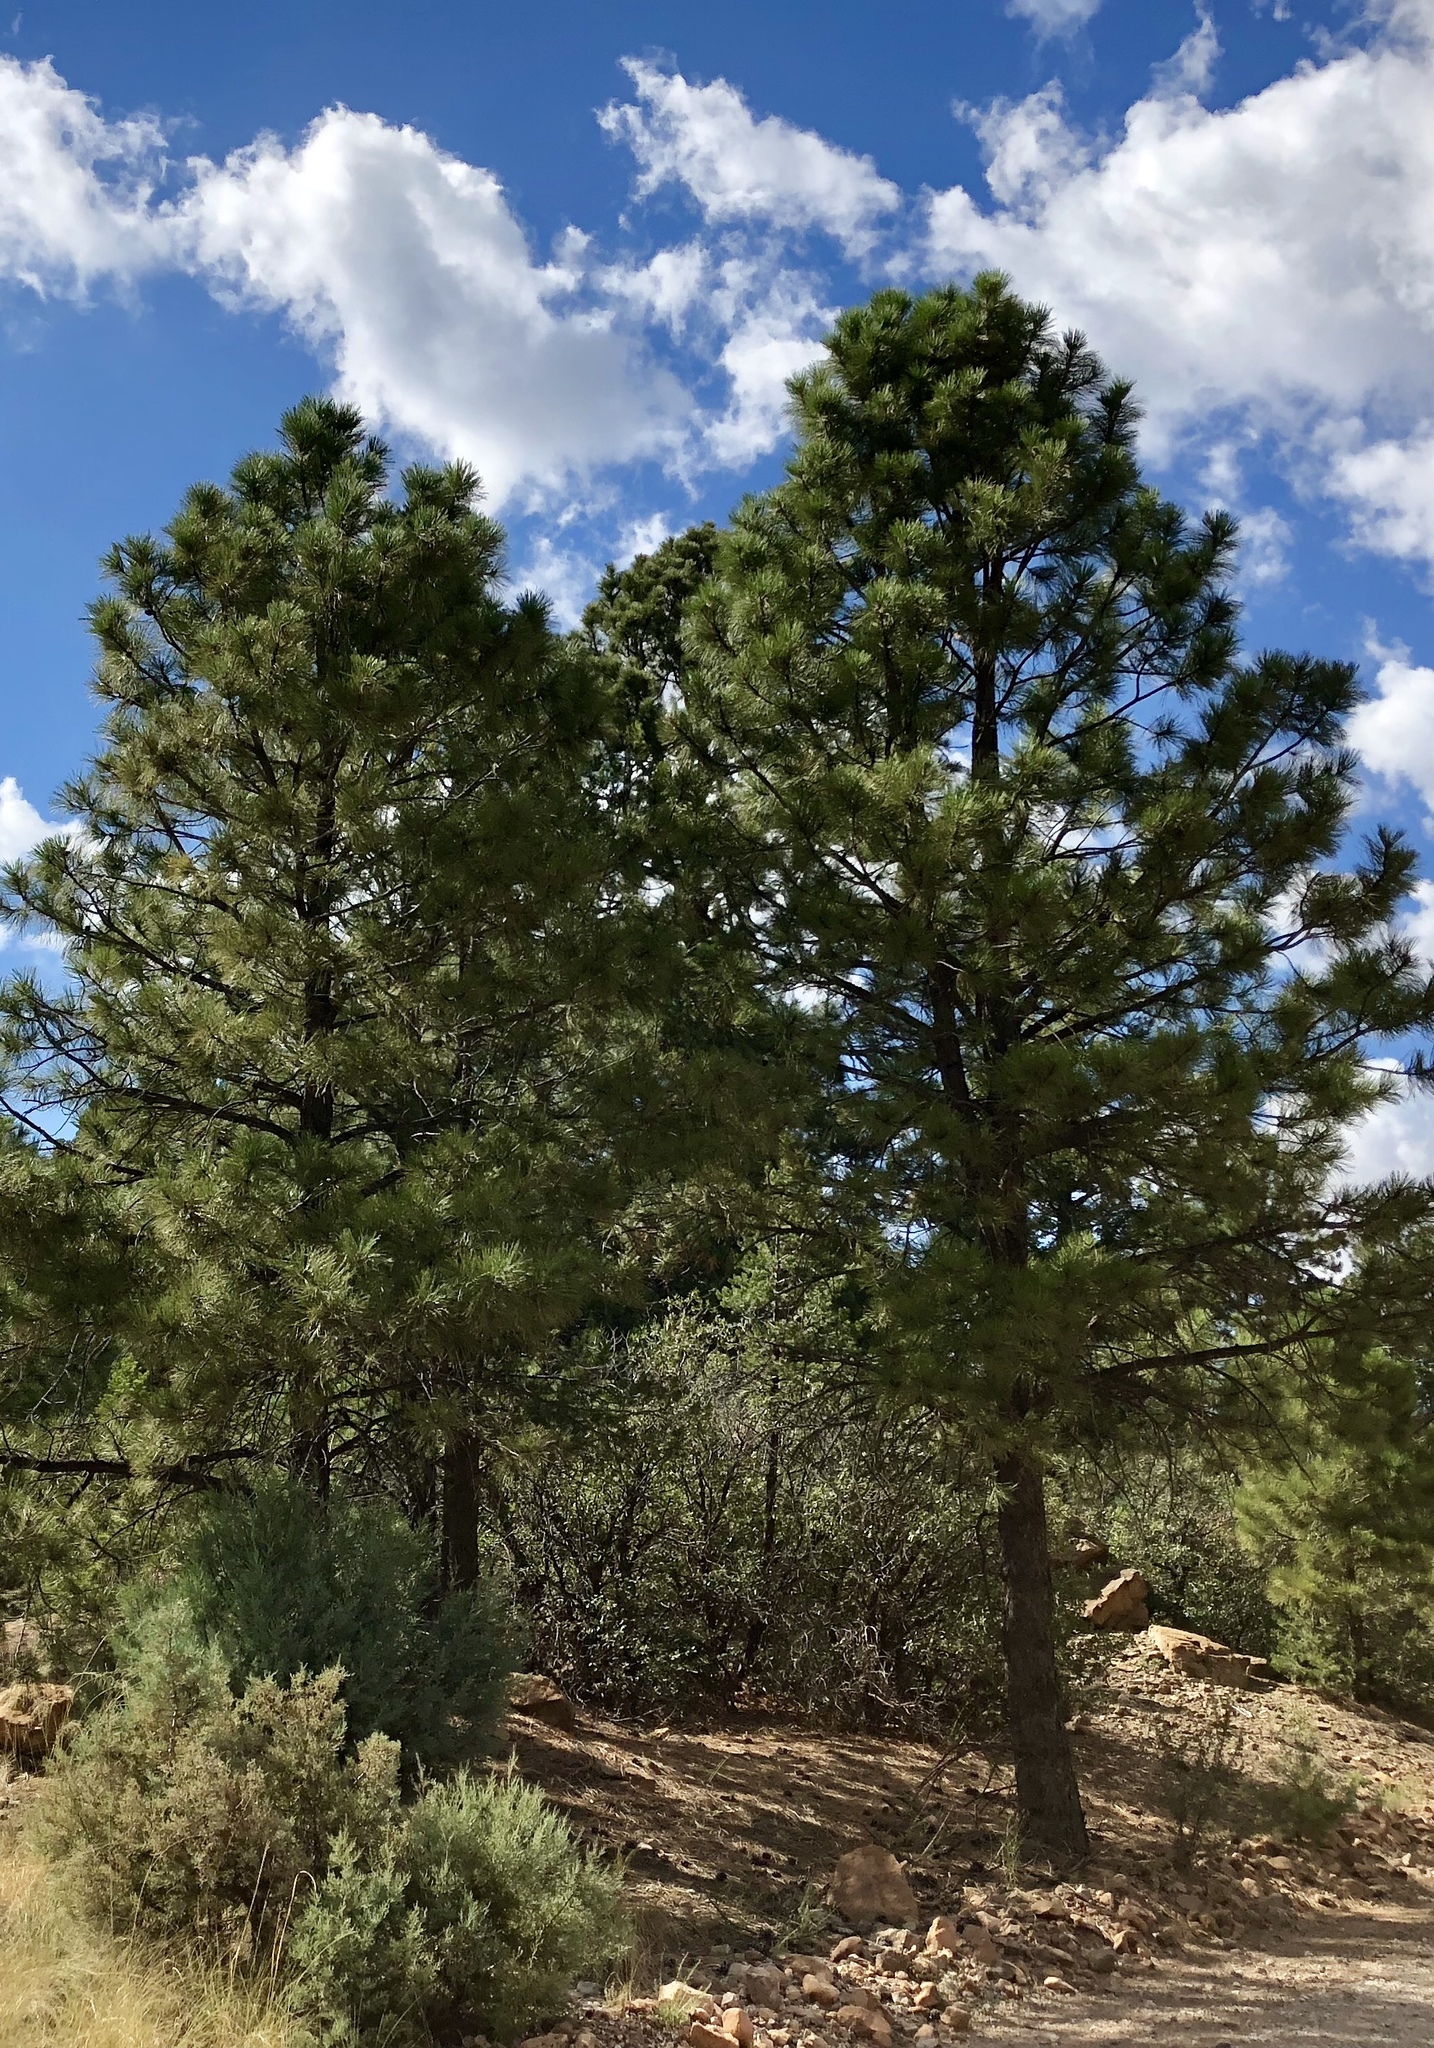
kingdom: Plantae
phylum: Tracheophyta
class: Pinopsida
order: Pinales
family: Pinaceae
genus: Pinus
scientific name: Pinus ponderosa
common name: Western yellow-pine
